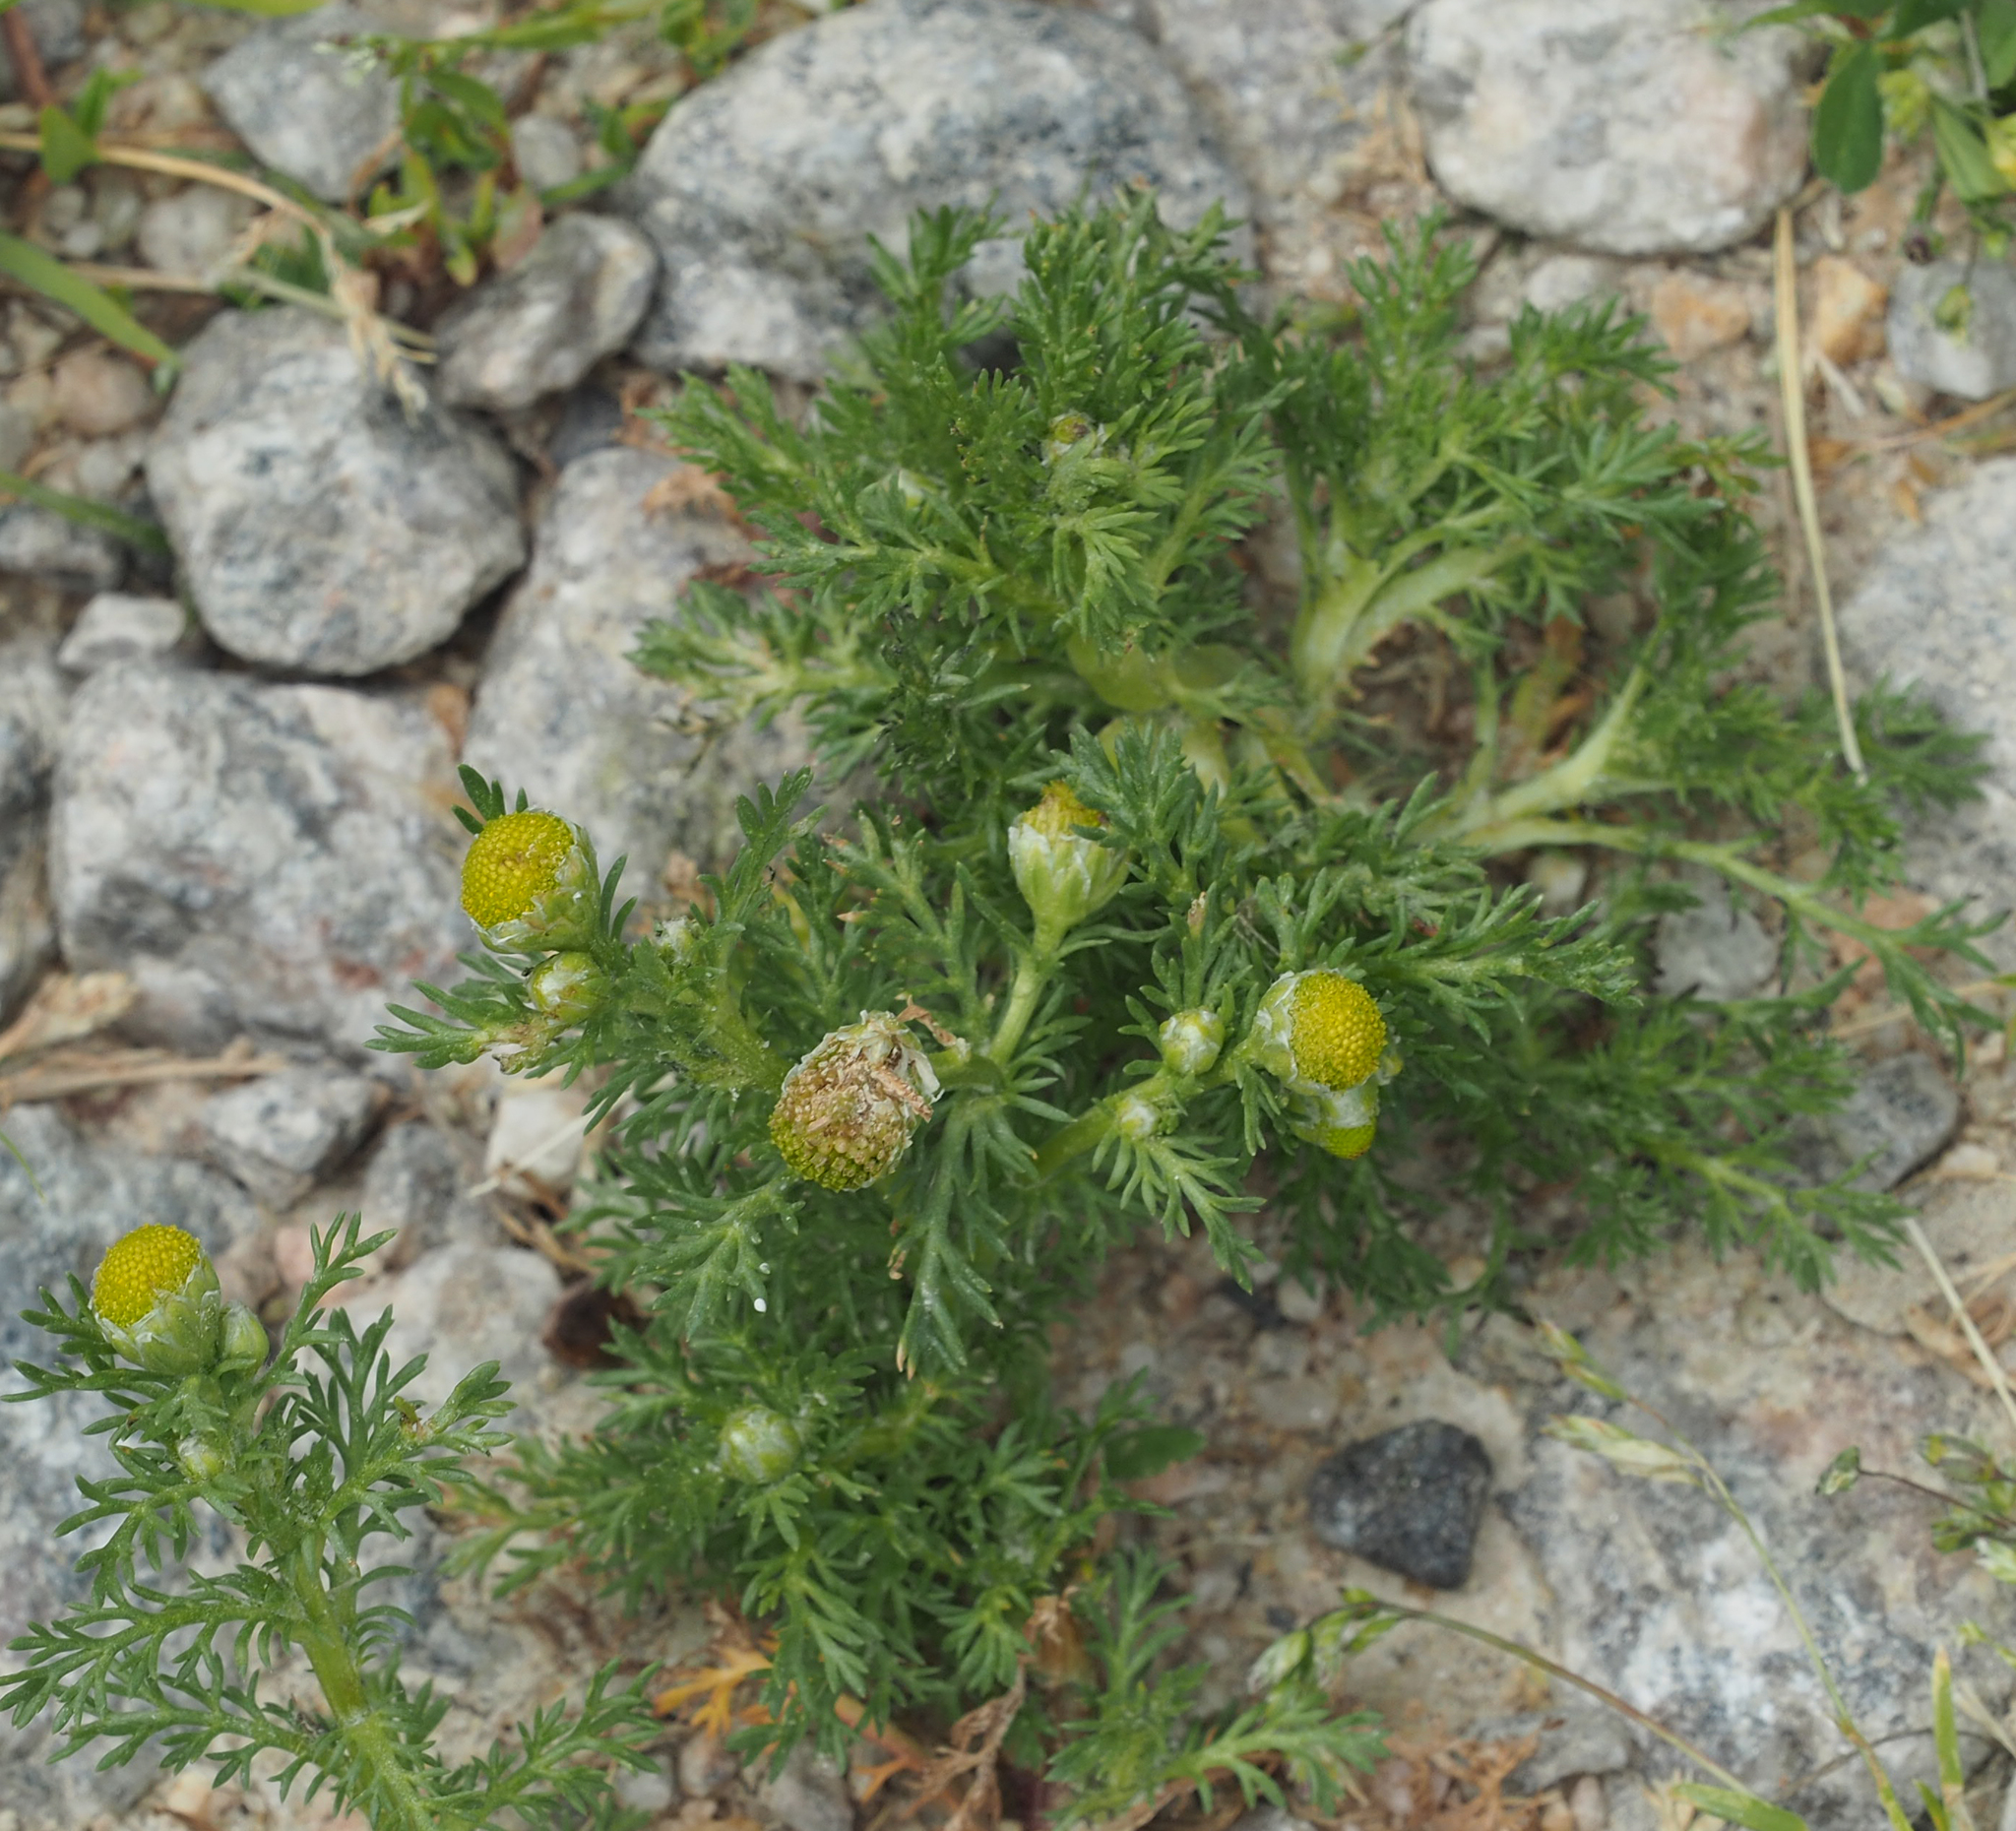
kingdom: Plantae
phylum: Tracheophyta
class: Magnoliopsida
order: Asterales
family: Asteraceae
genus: Matricaria
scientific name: Matricaria discoidea
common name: Disc mayweed
